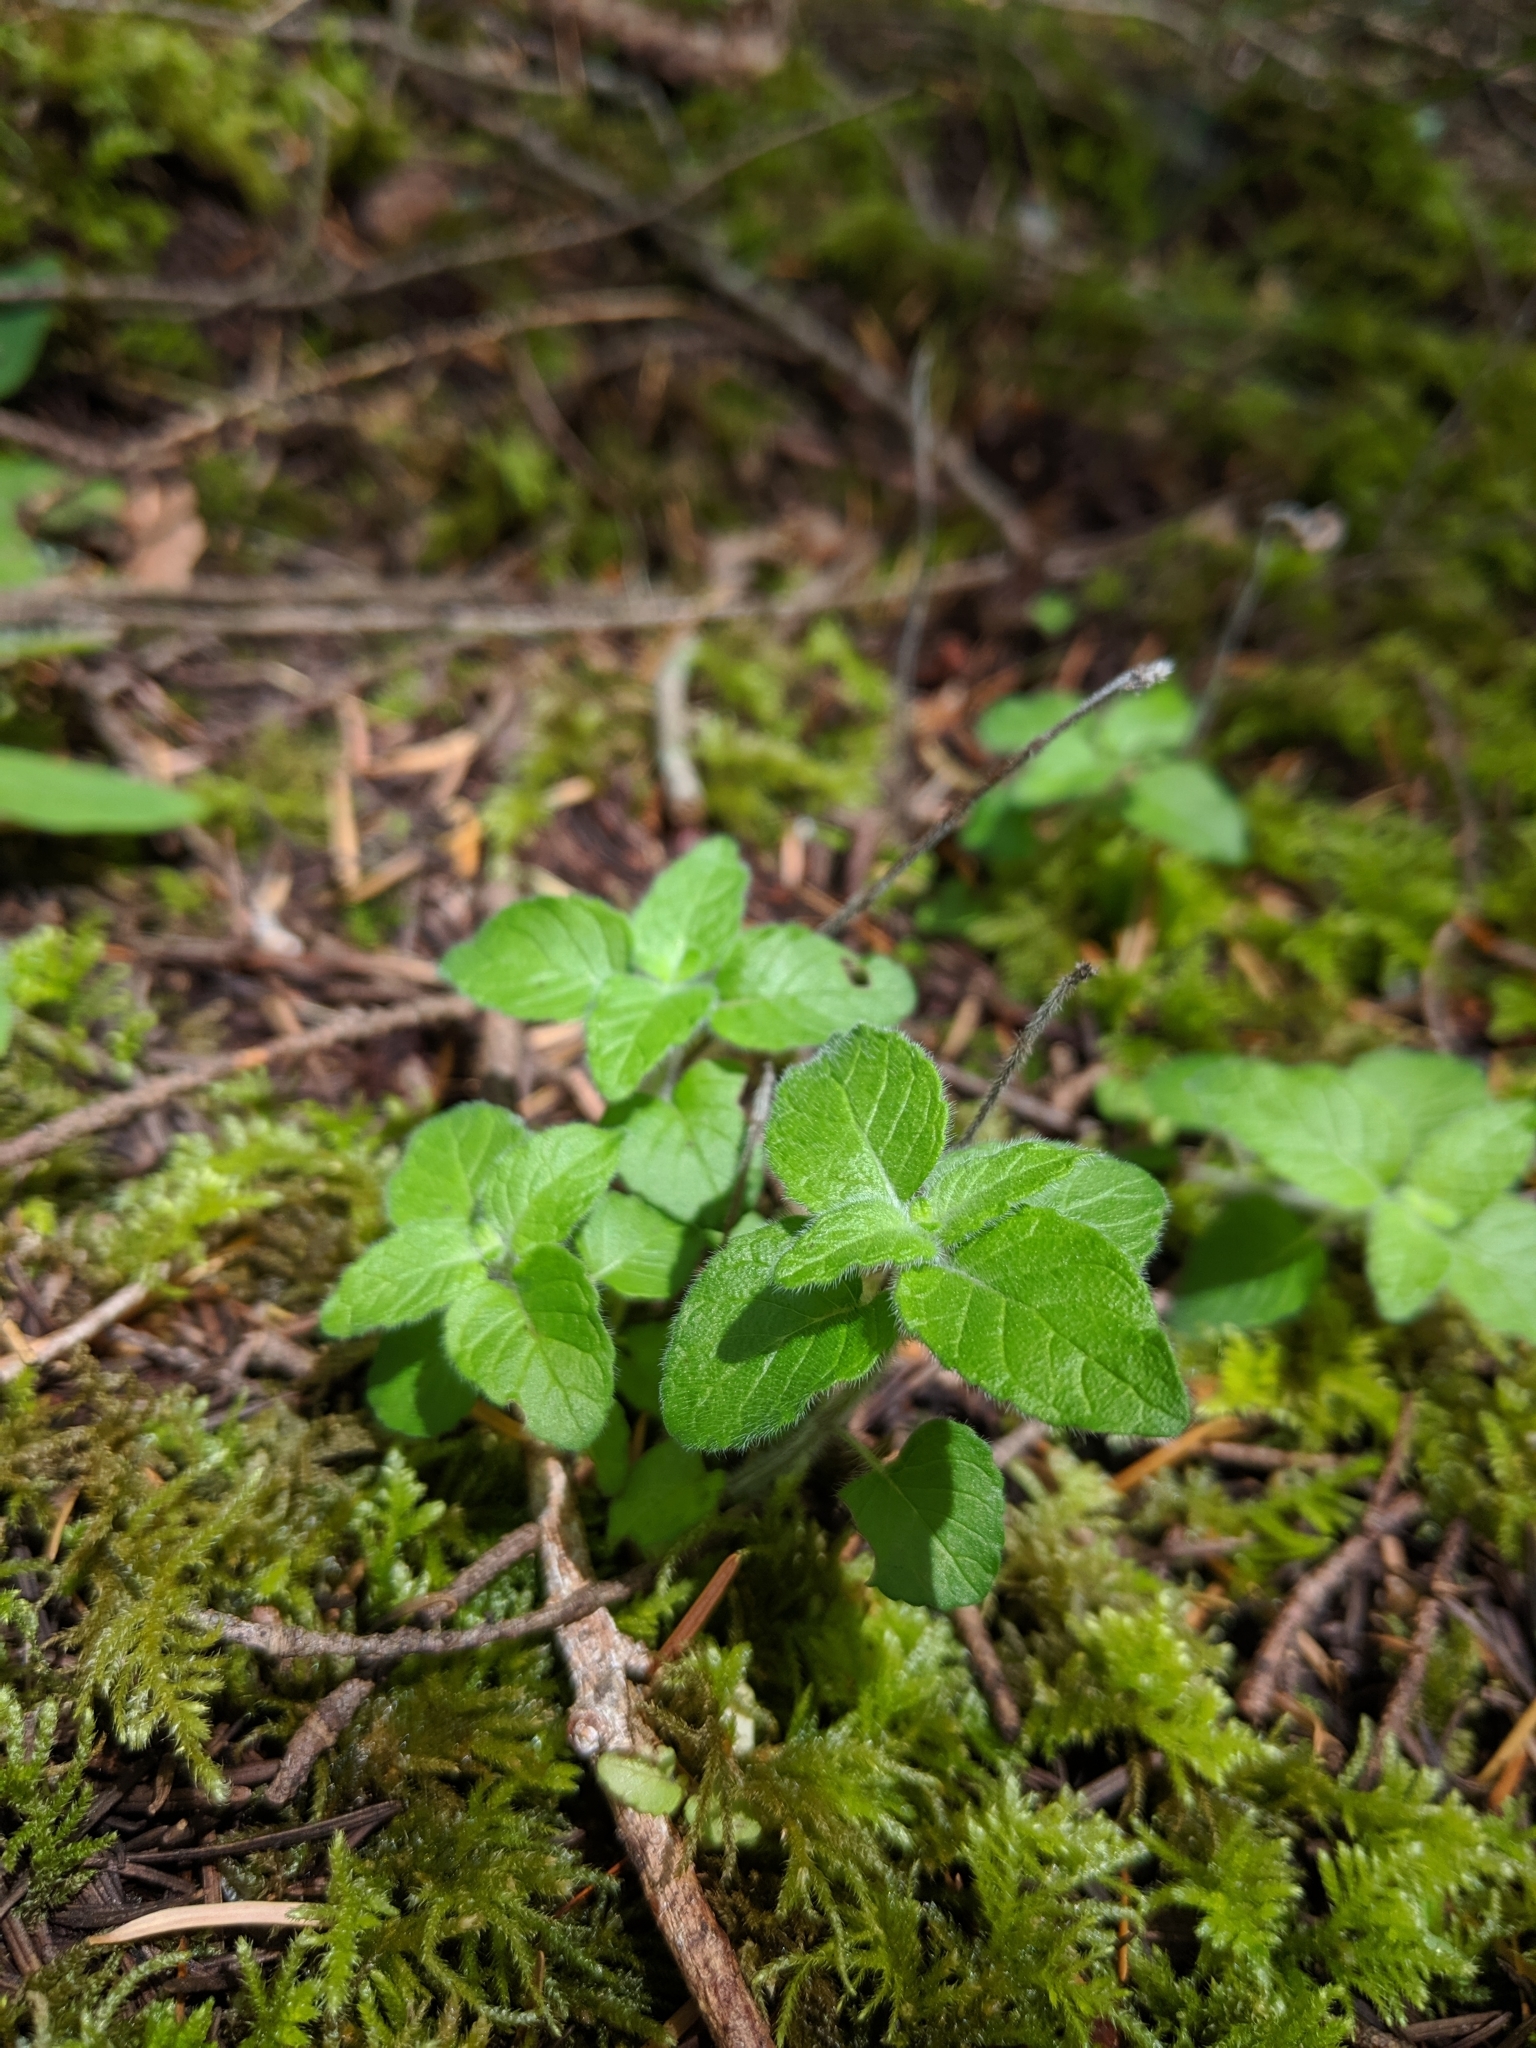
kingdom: Plantae
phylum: Tracheophyta
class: Magnoliopsida
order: Lamiales
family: Lamiaceae
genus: Clinopodium
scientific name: Clinopodium vulgare
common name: Wild basil
